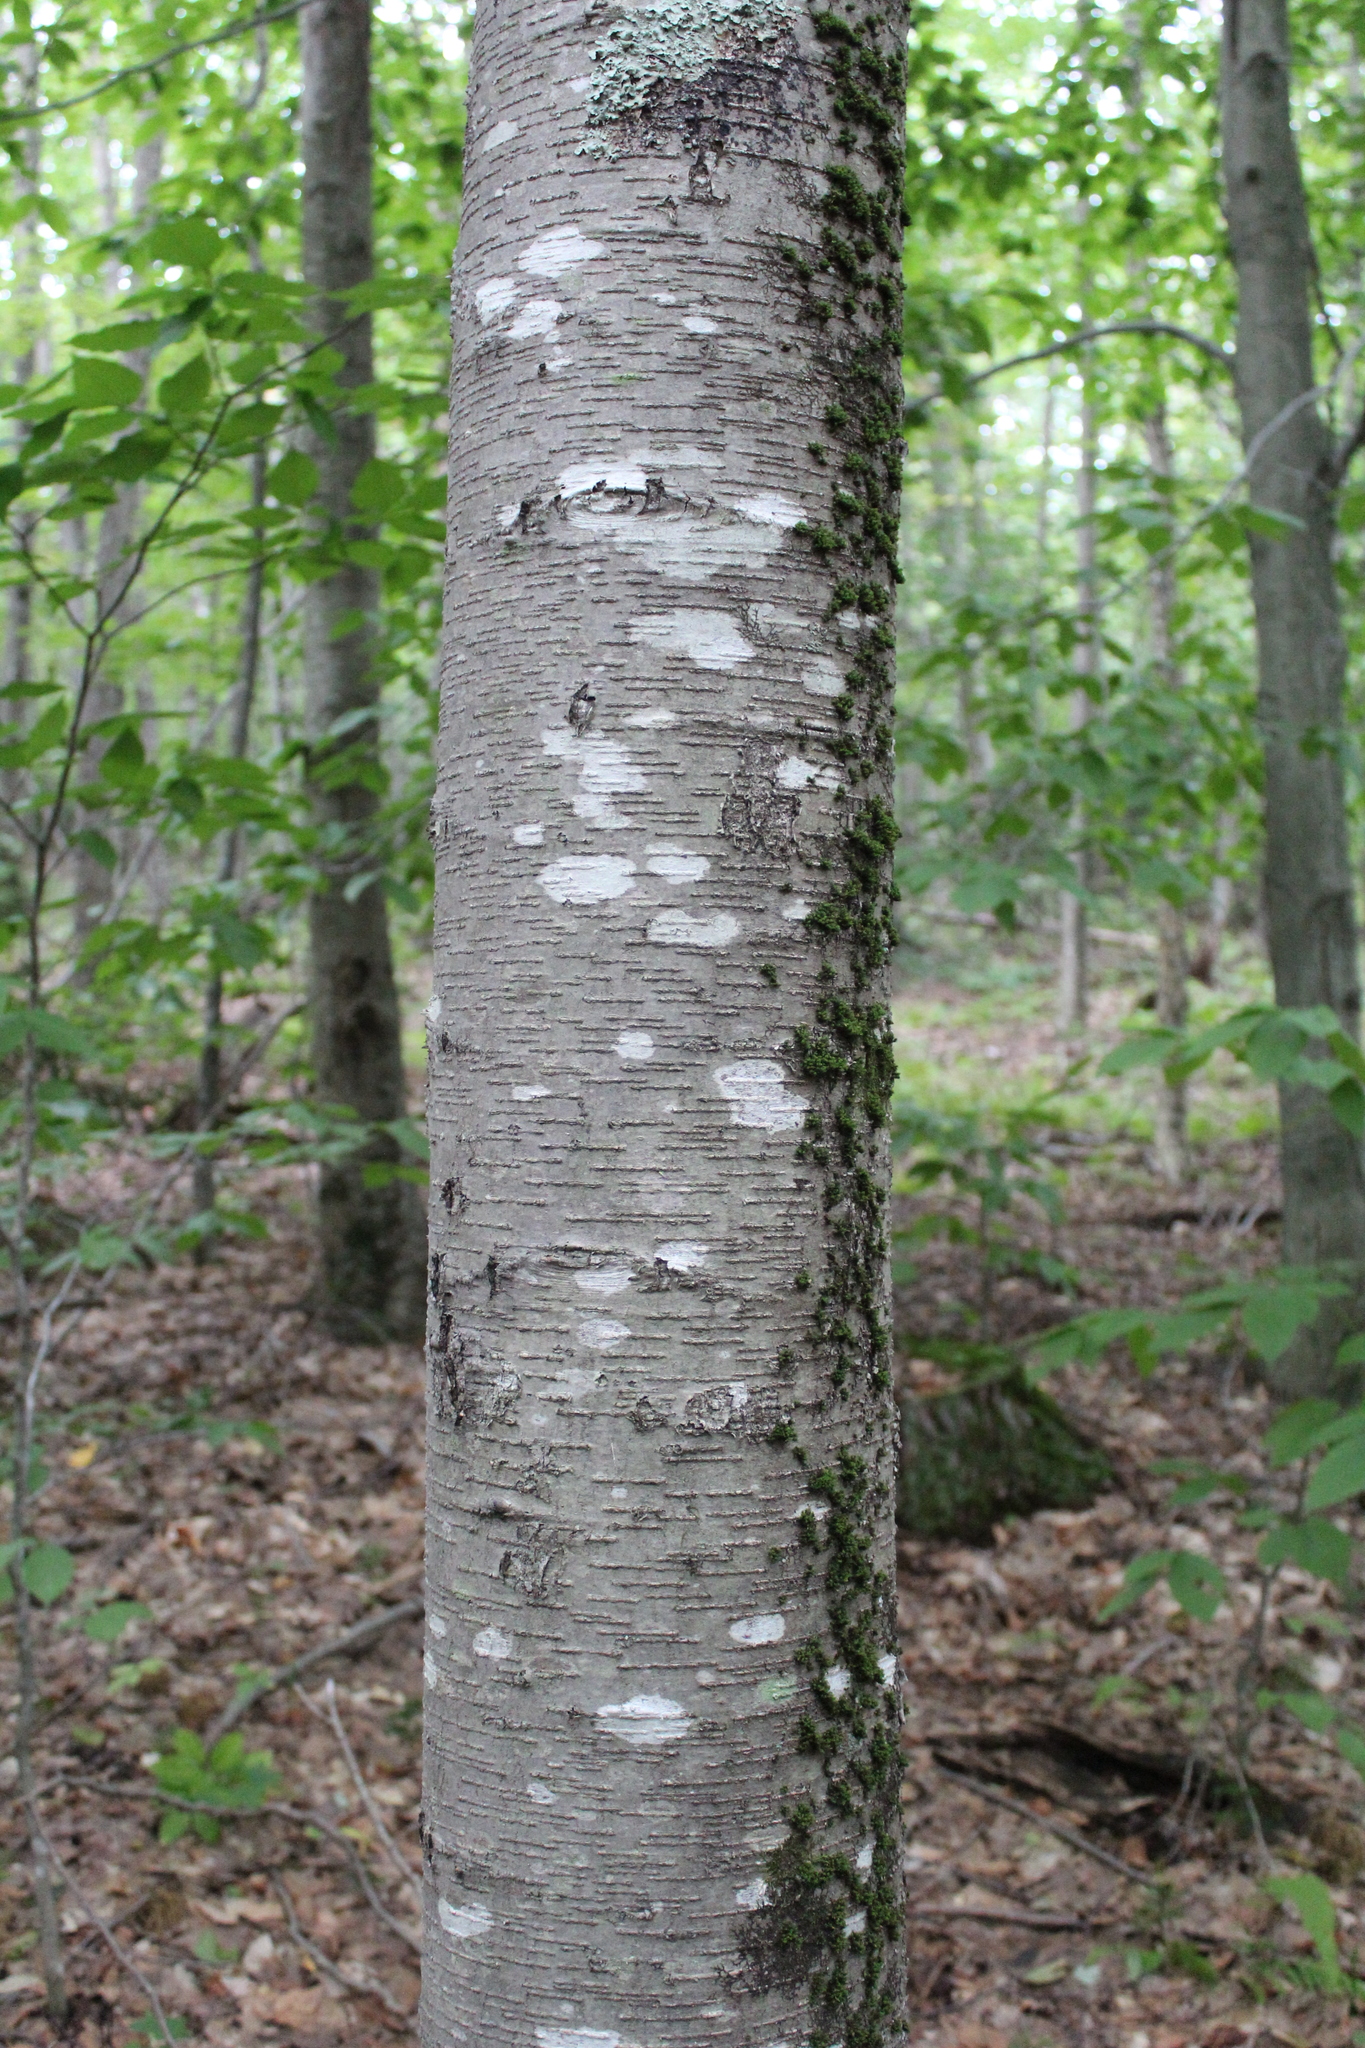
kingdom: Plantae
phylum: Tracheophyta
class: Magnoliopsida
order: Fagales
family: Betulaceae
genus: Betula
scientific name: Betula lenta
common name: Black birch
